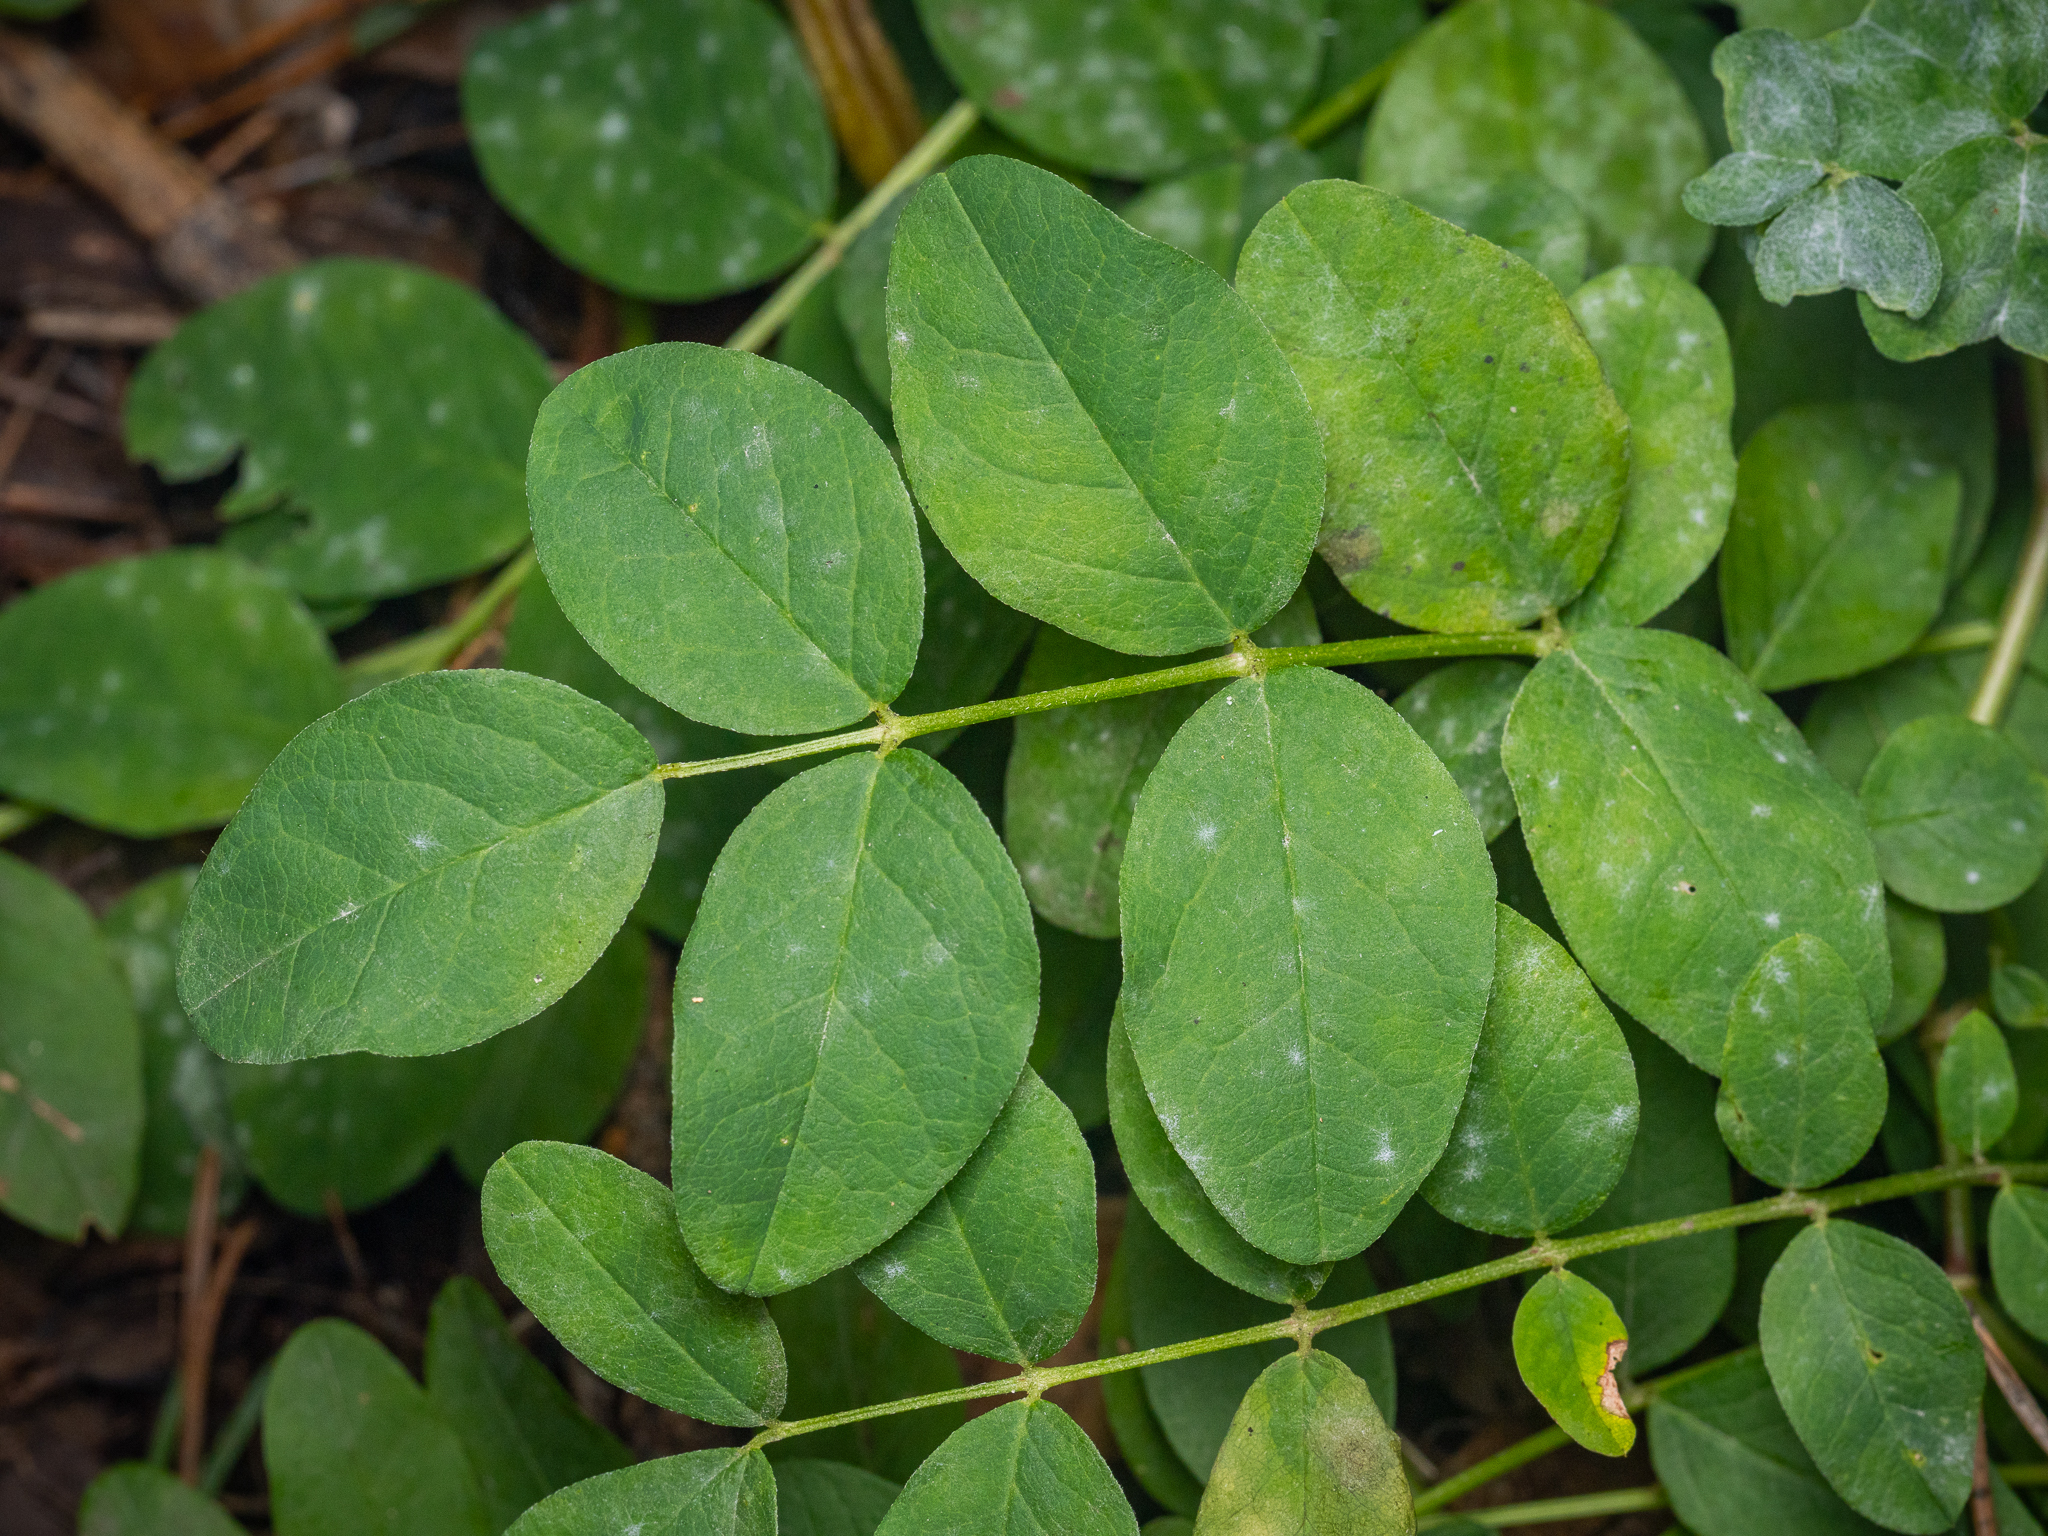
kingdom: Plantae
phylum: Tracheophyta
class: Magnoliopsida
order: Fabales
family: Fabaceae
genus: Astragalus
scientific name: Astragalus glycyphyllos
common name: Wild liquorice
